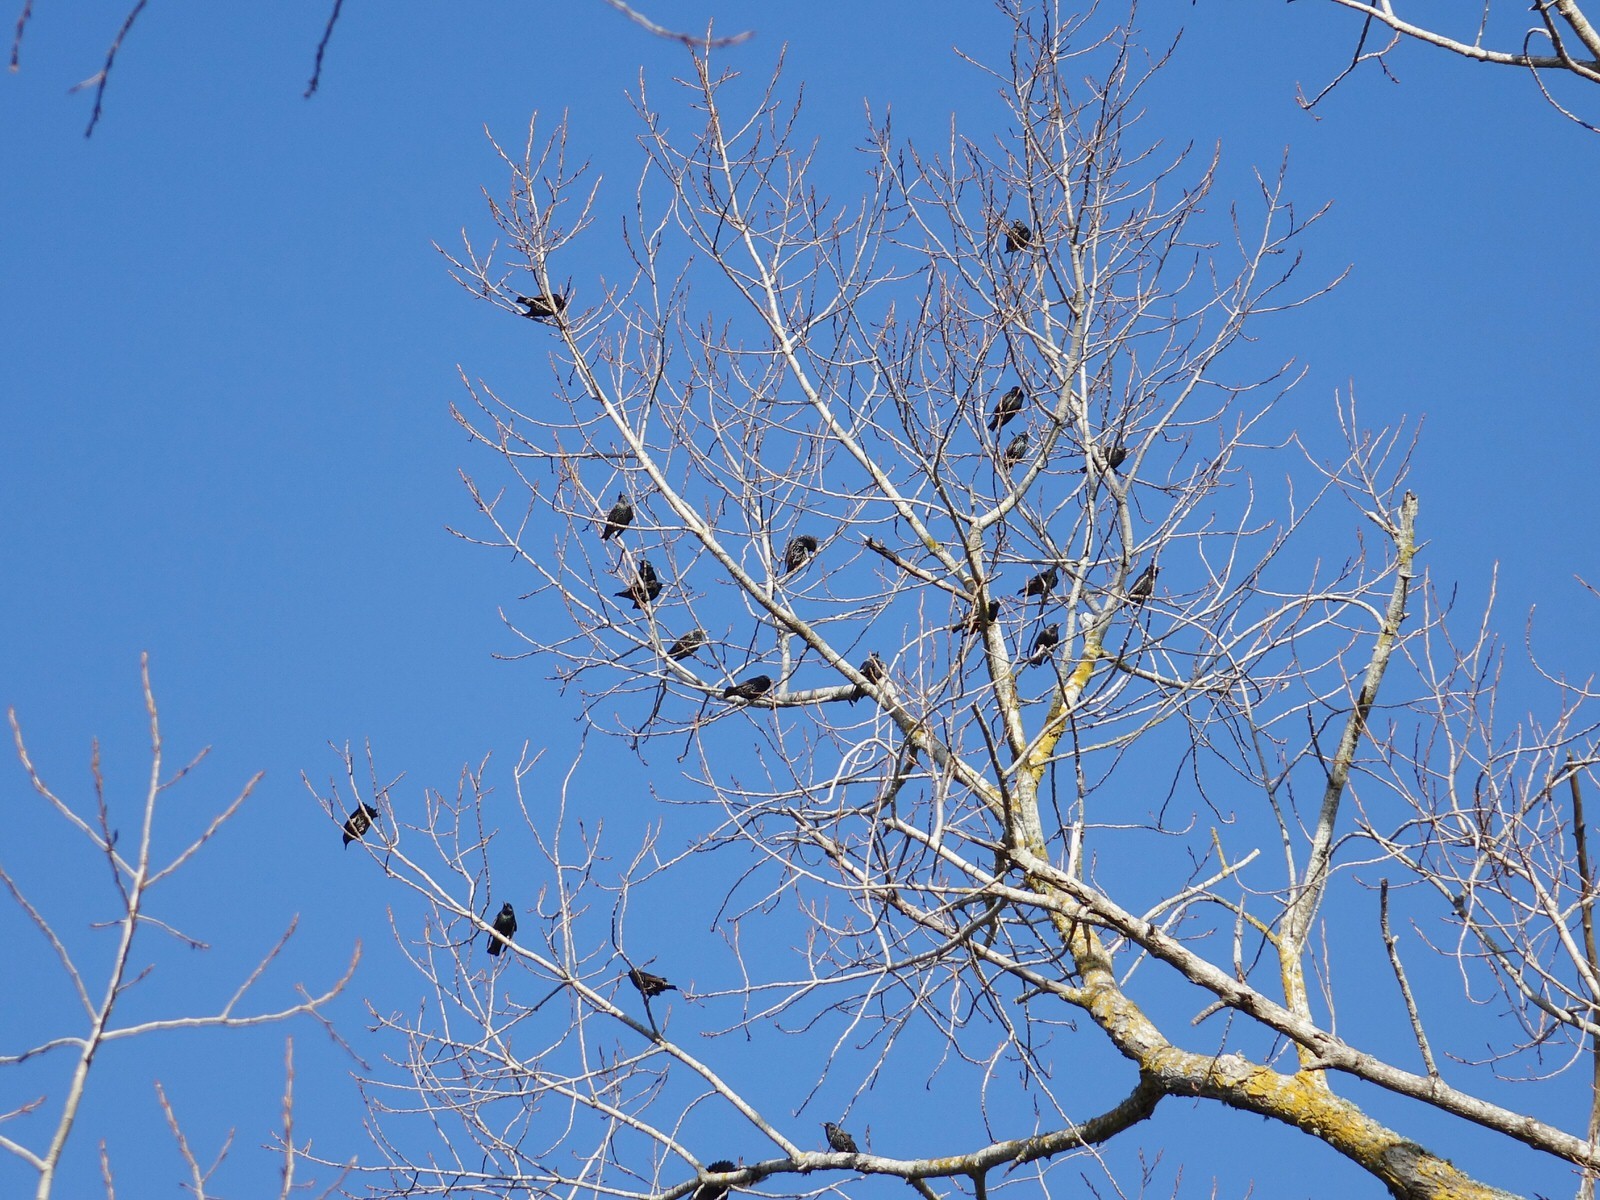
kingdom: Animalia
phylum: Chordata
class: Aves
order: Passeriformes
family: Sturnidae
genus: Sturnus
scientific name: Sturnus vulgaris
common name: Common starling
